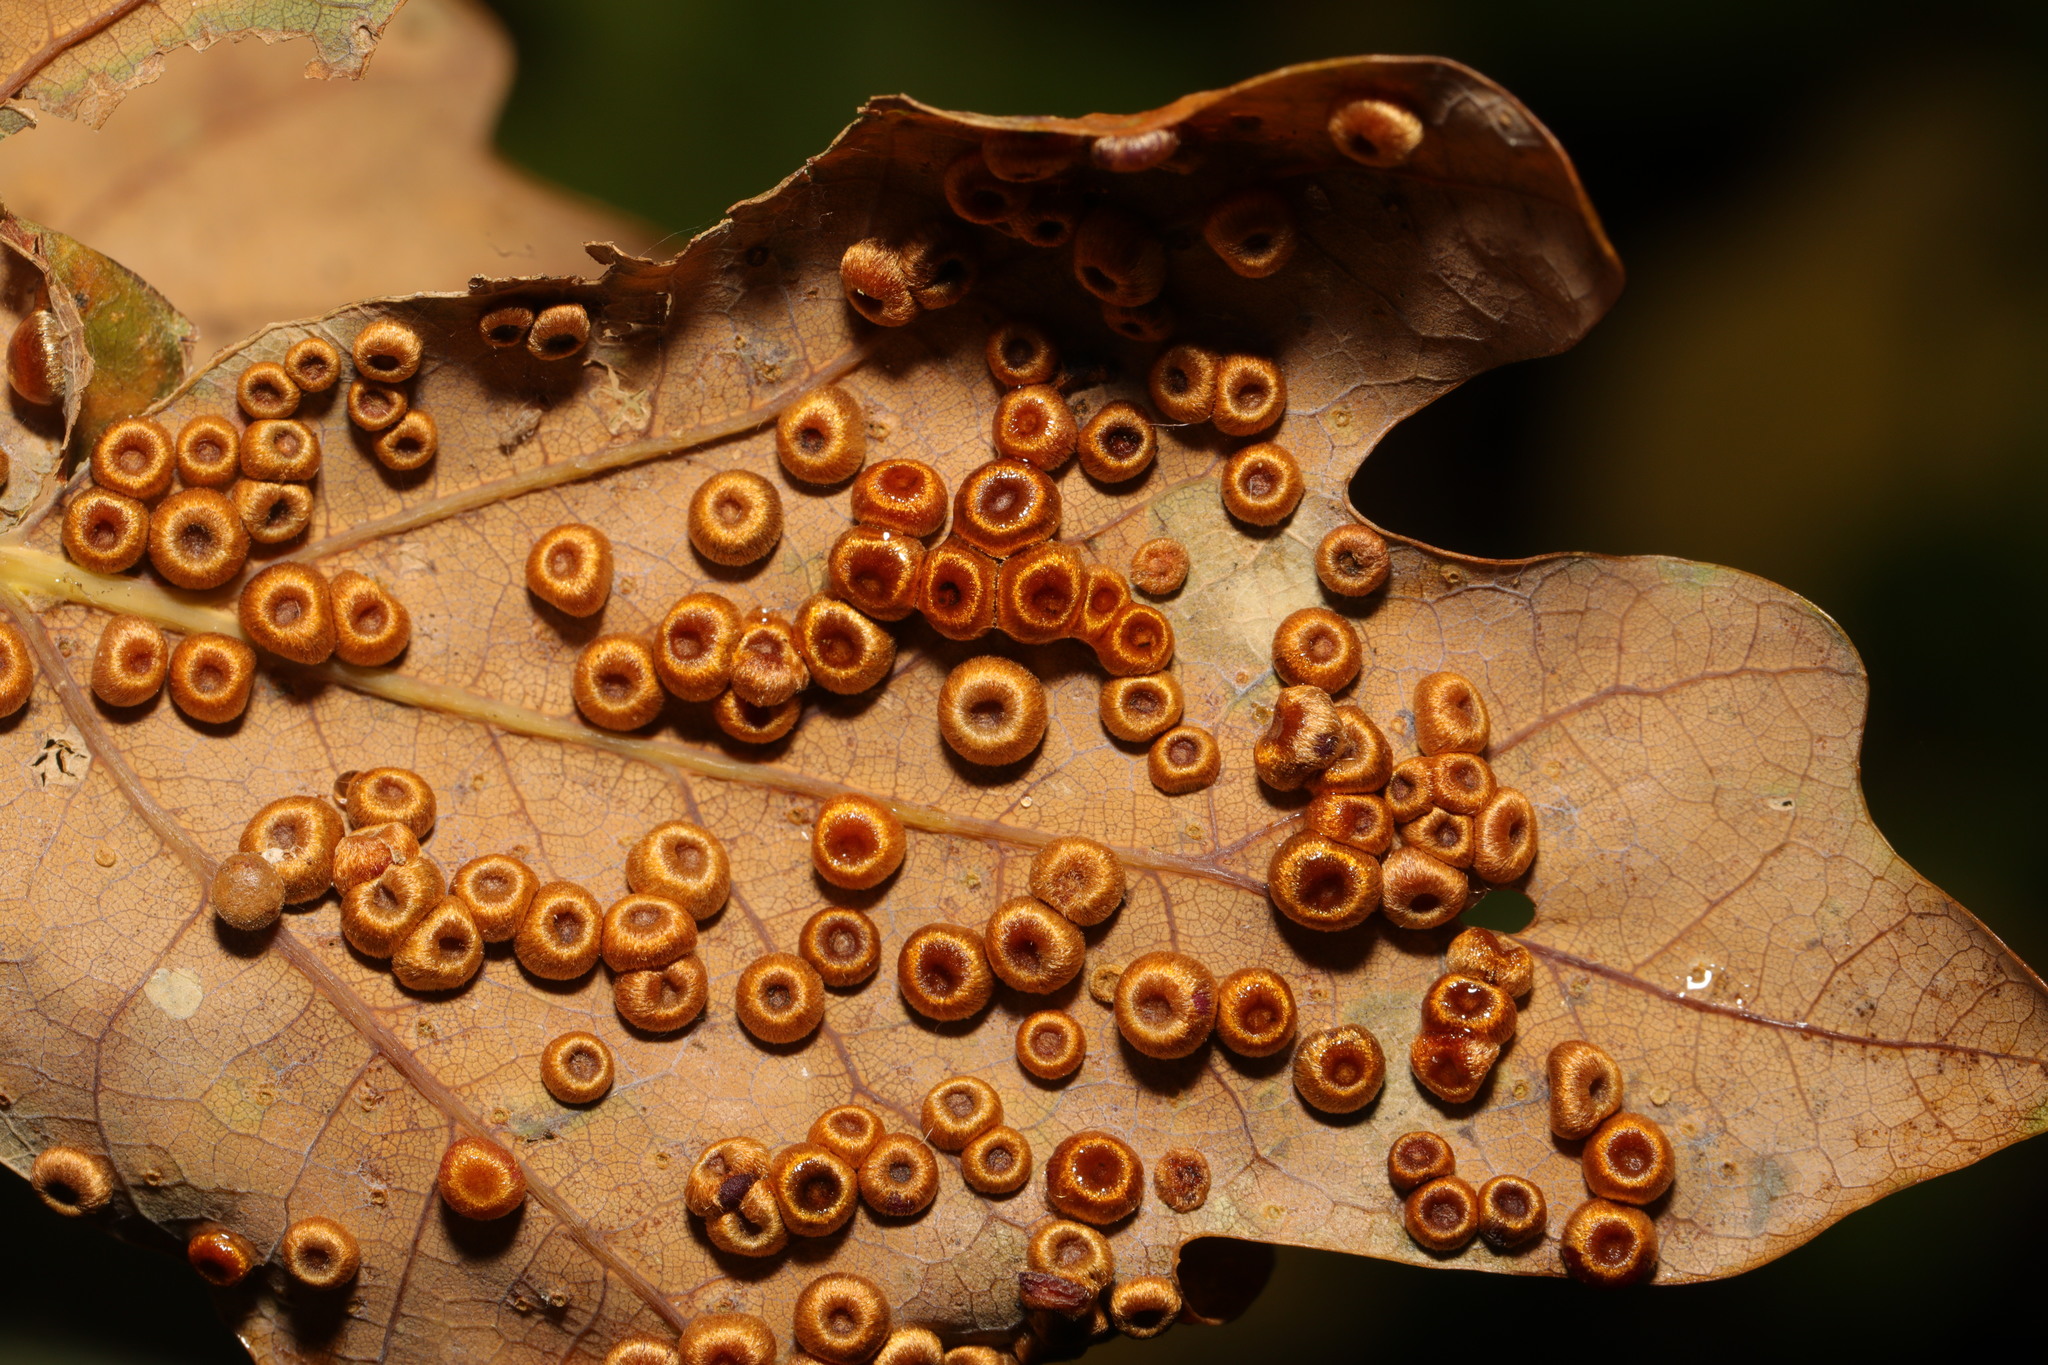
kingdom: Animalia
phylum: Arthropoda
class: Insecta
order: Hymenoptera
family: Cynipidae
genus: Neuroterus
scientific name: Neuroterus numismalis
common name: Silk-button spangle gall
